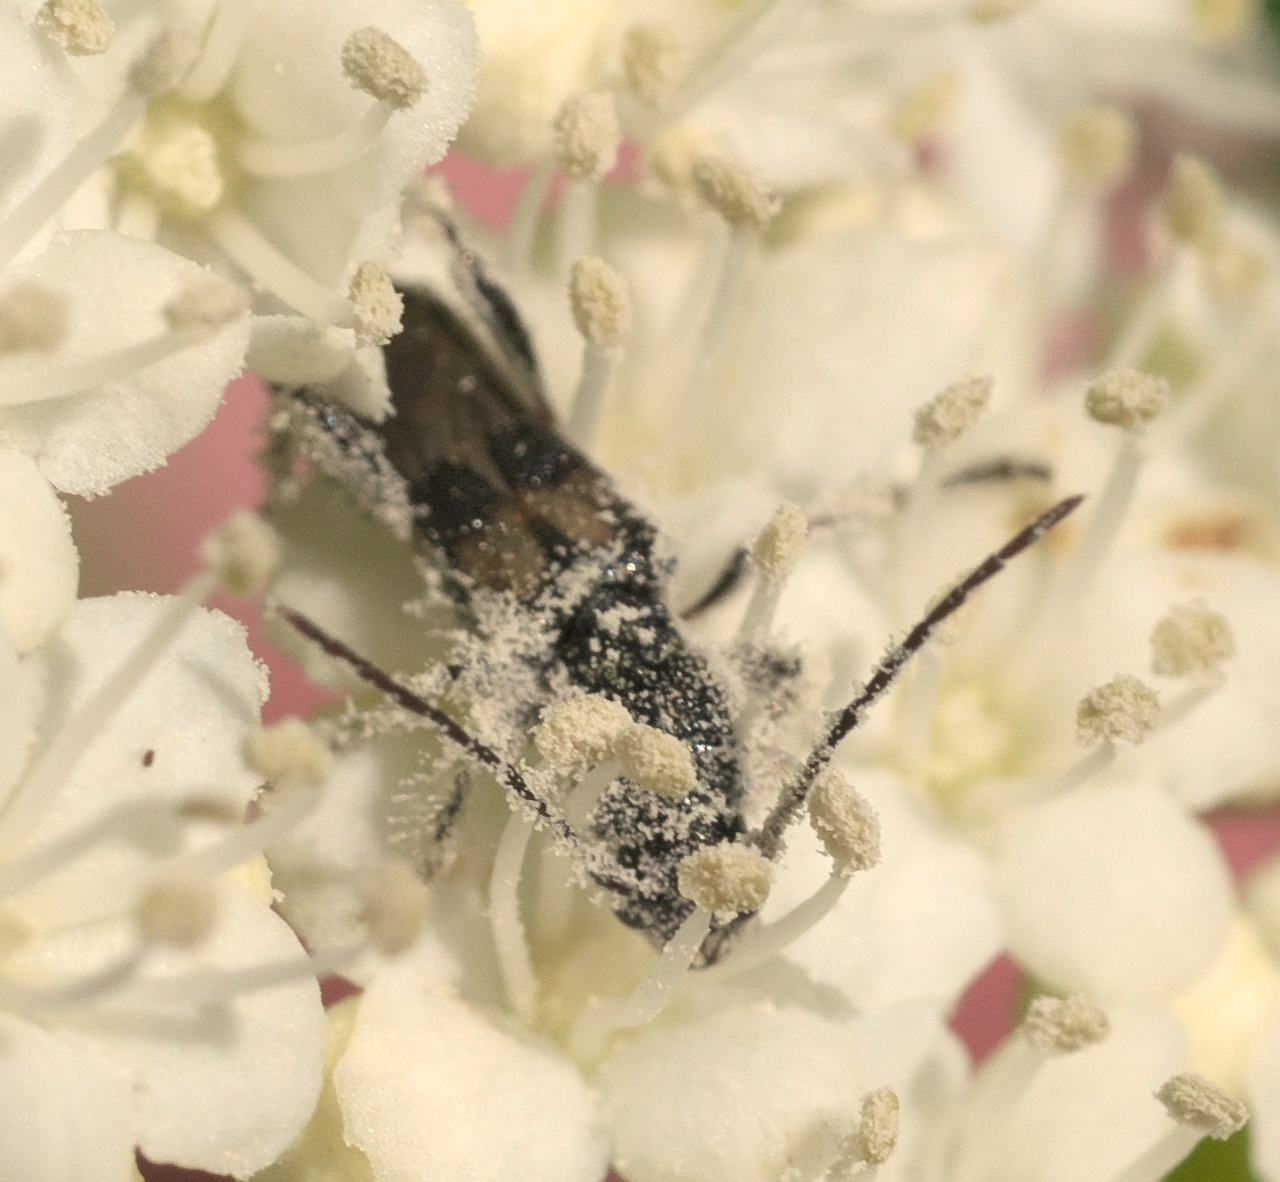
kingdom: Animalia
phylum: Arthropoda
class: Insecta
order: Coleoptera
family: Cerambycidae
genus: Molorchus
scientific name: Molorchus bimaculatus
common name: Bimaculate longhorn beetle
